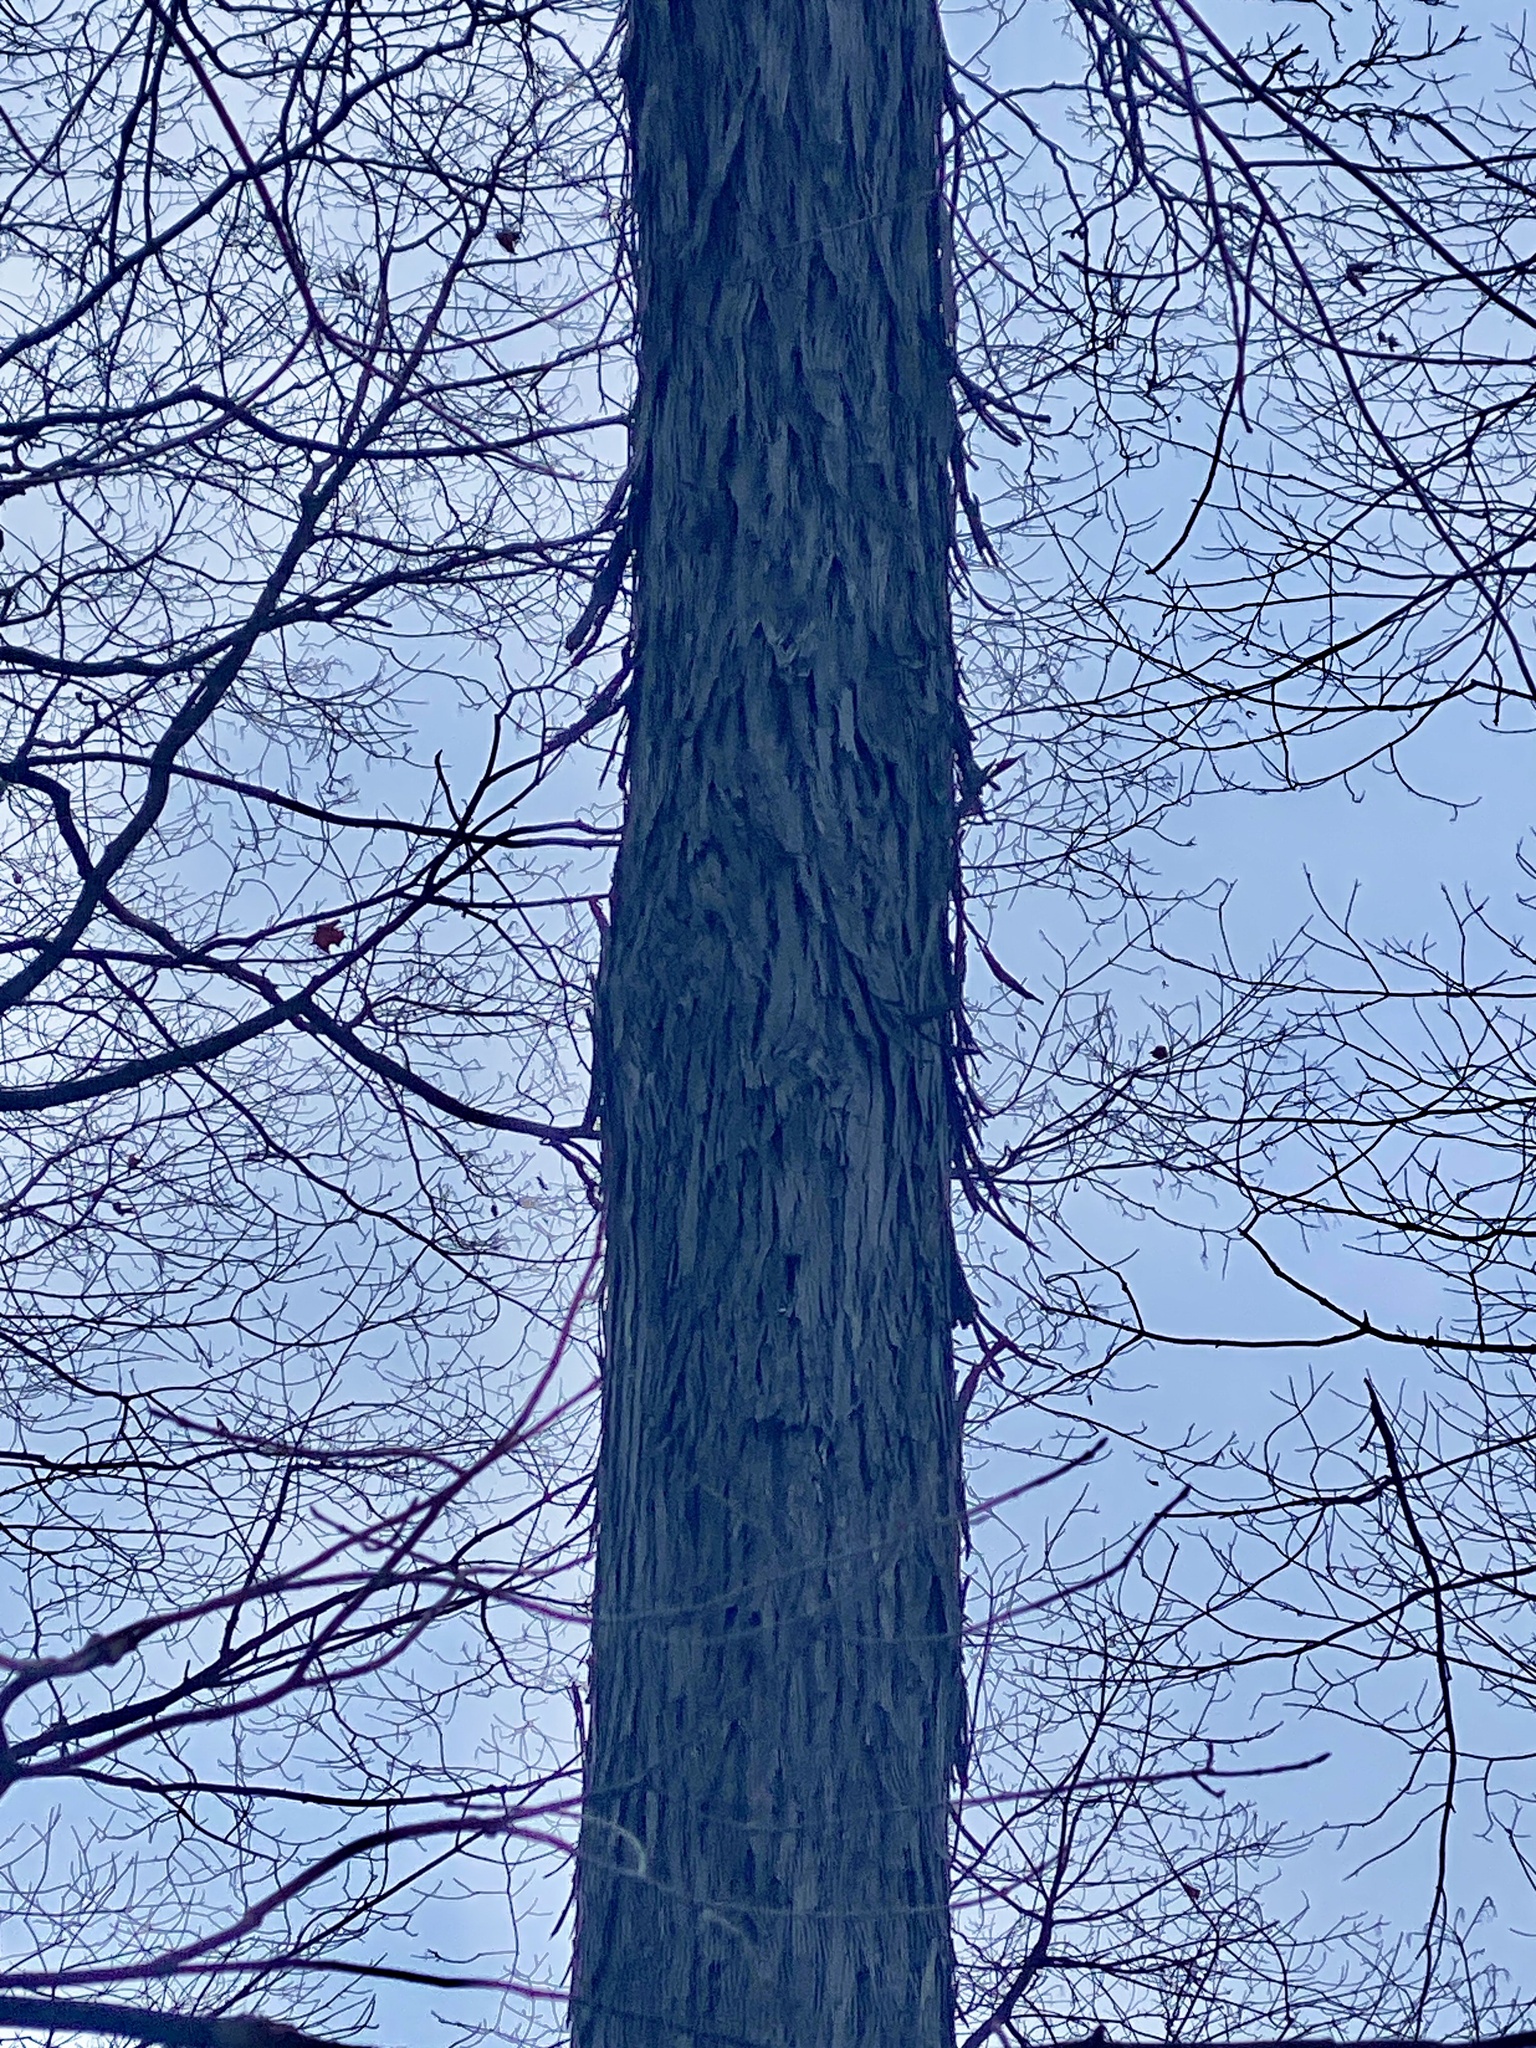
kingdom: Plantae
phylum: Tracheophyta
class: Magnoliopsida
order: Fagales
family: Juglandaceae
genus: Carya
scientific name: Carya ovata
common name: Shagbark hickory
